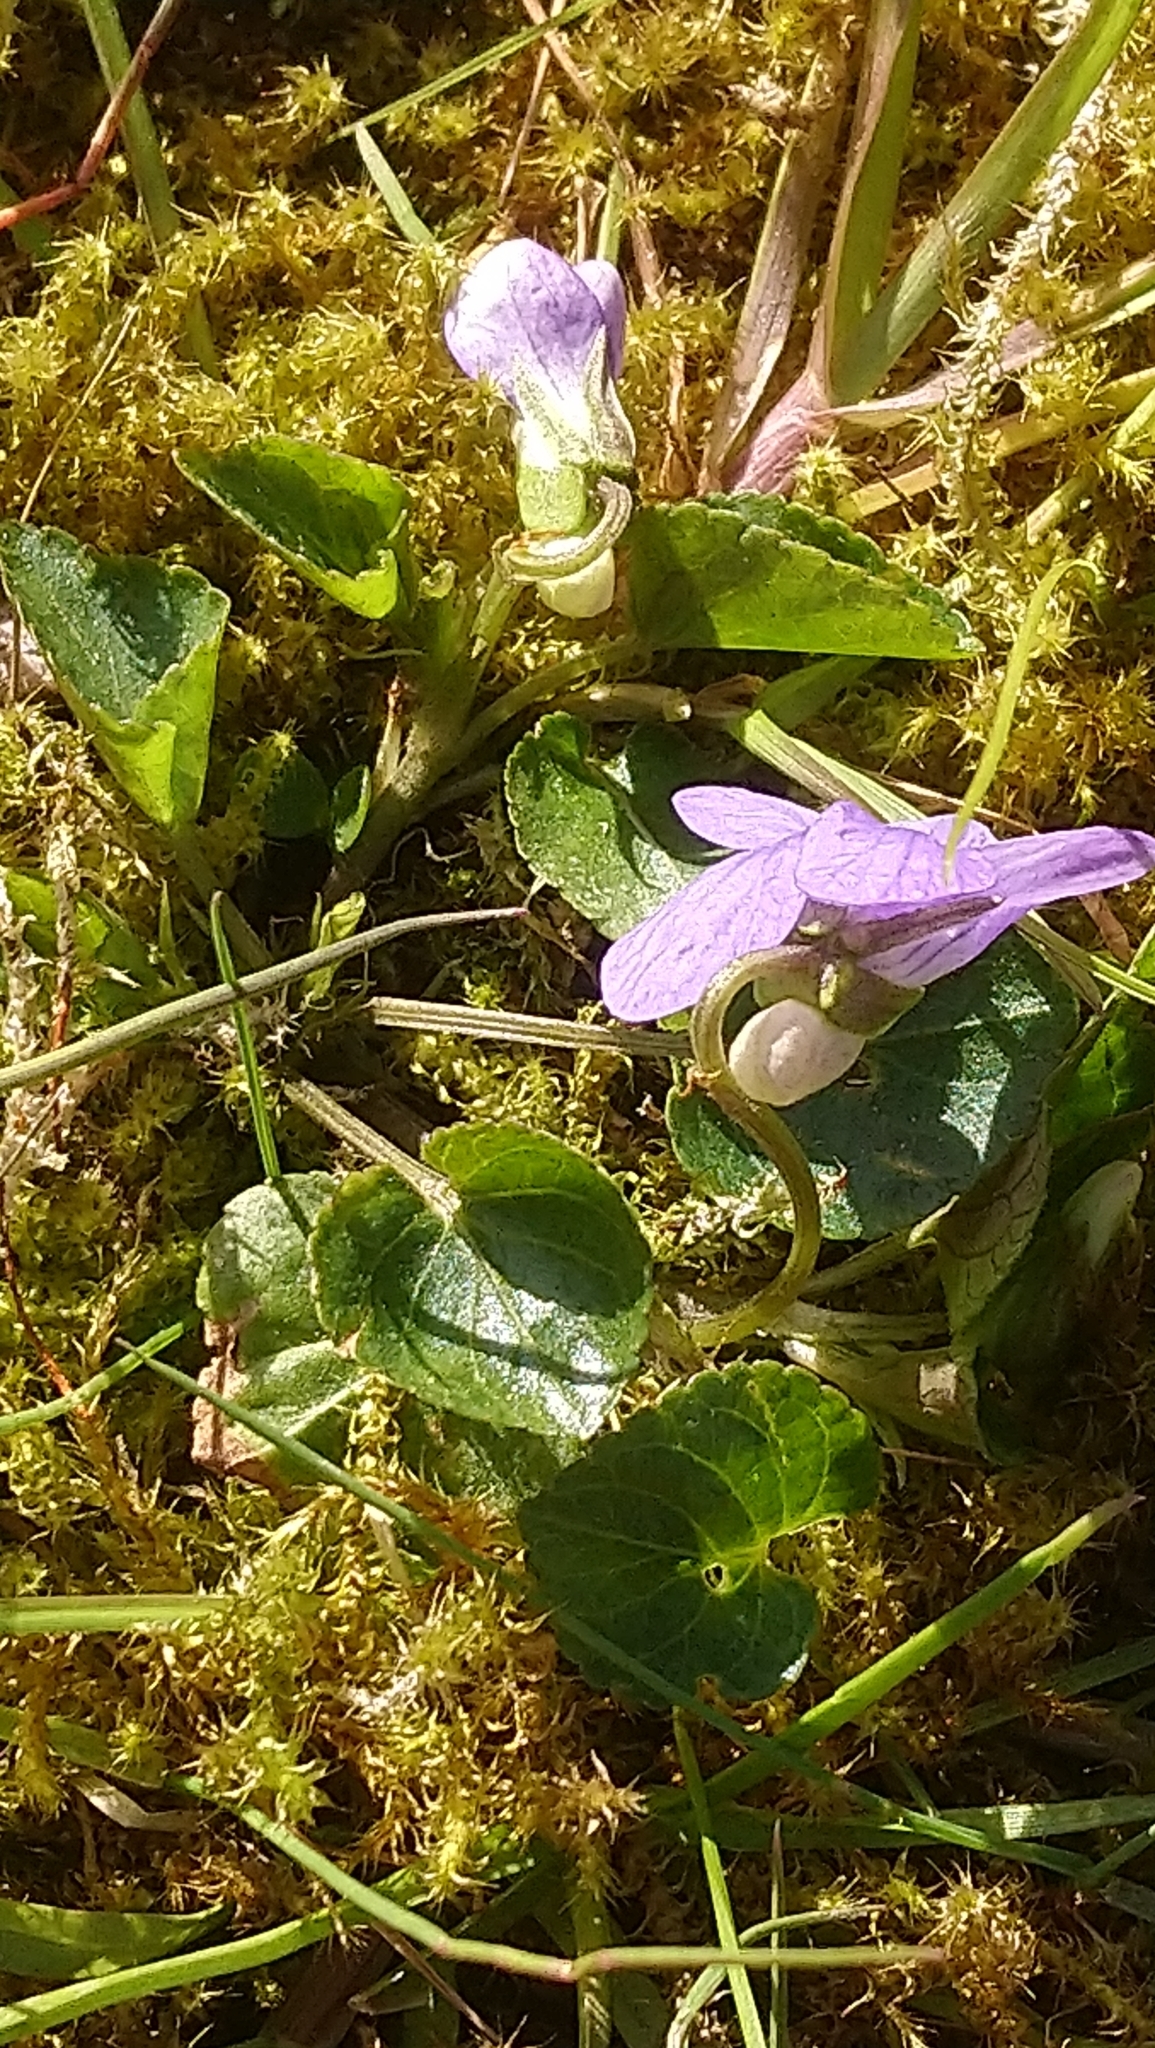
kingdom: Plantae
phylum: Tracheophyta
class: Magnoliopsida
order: Malpighiales
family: Violaceae
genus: Viola
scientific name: Viola riviniana
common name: Common dog-violet
